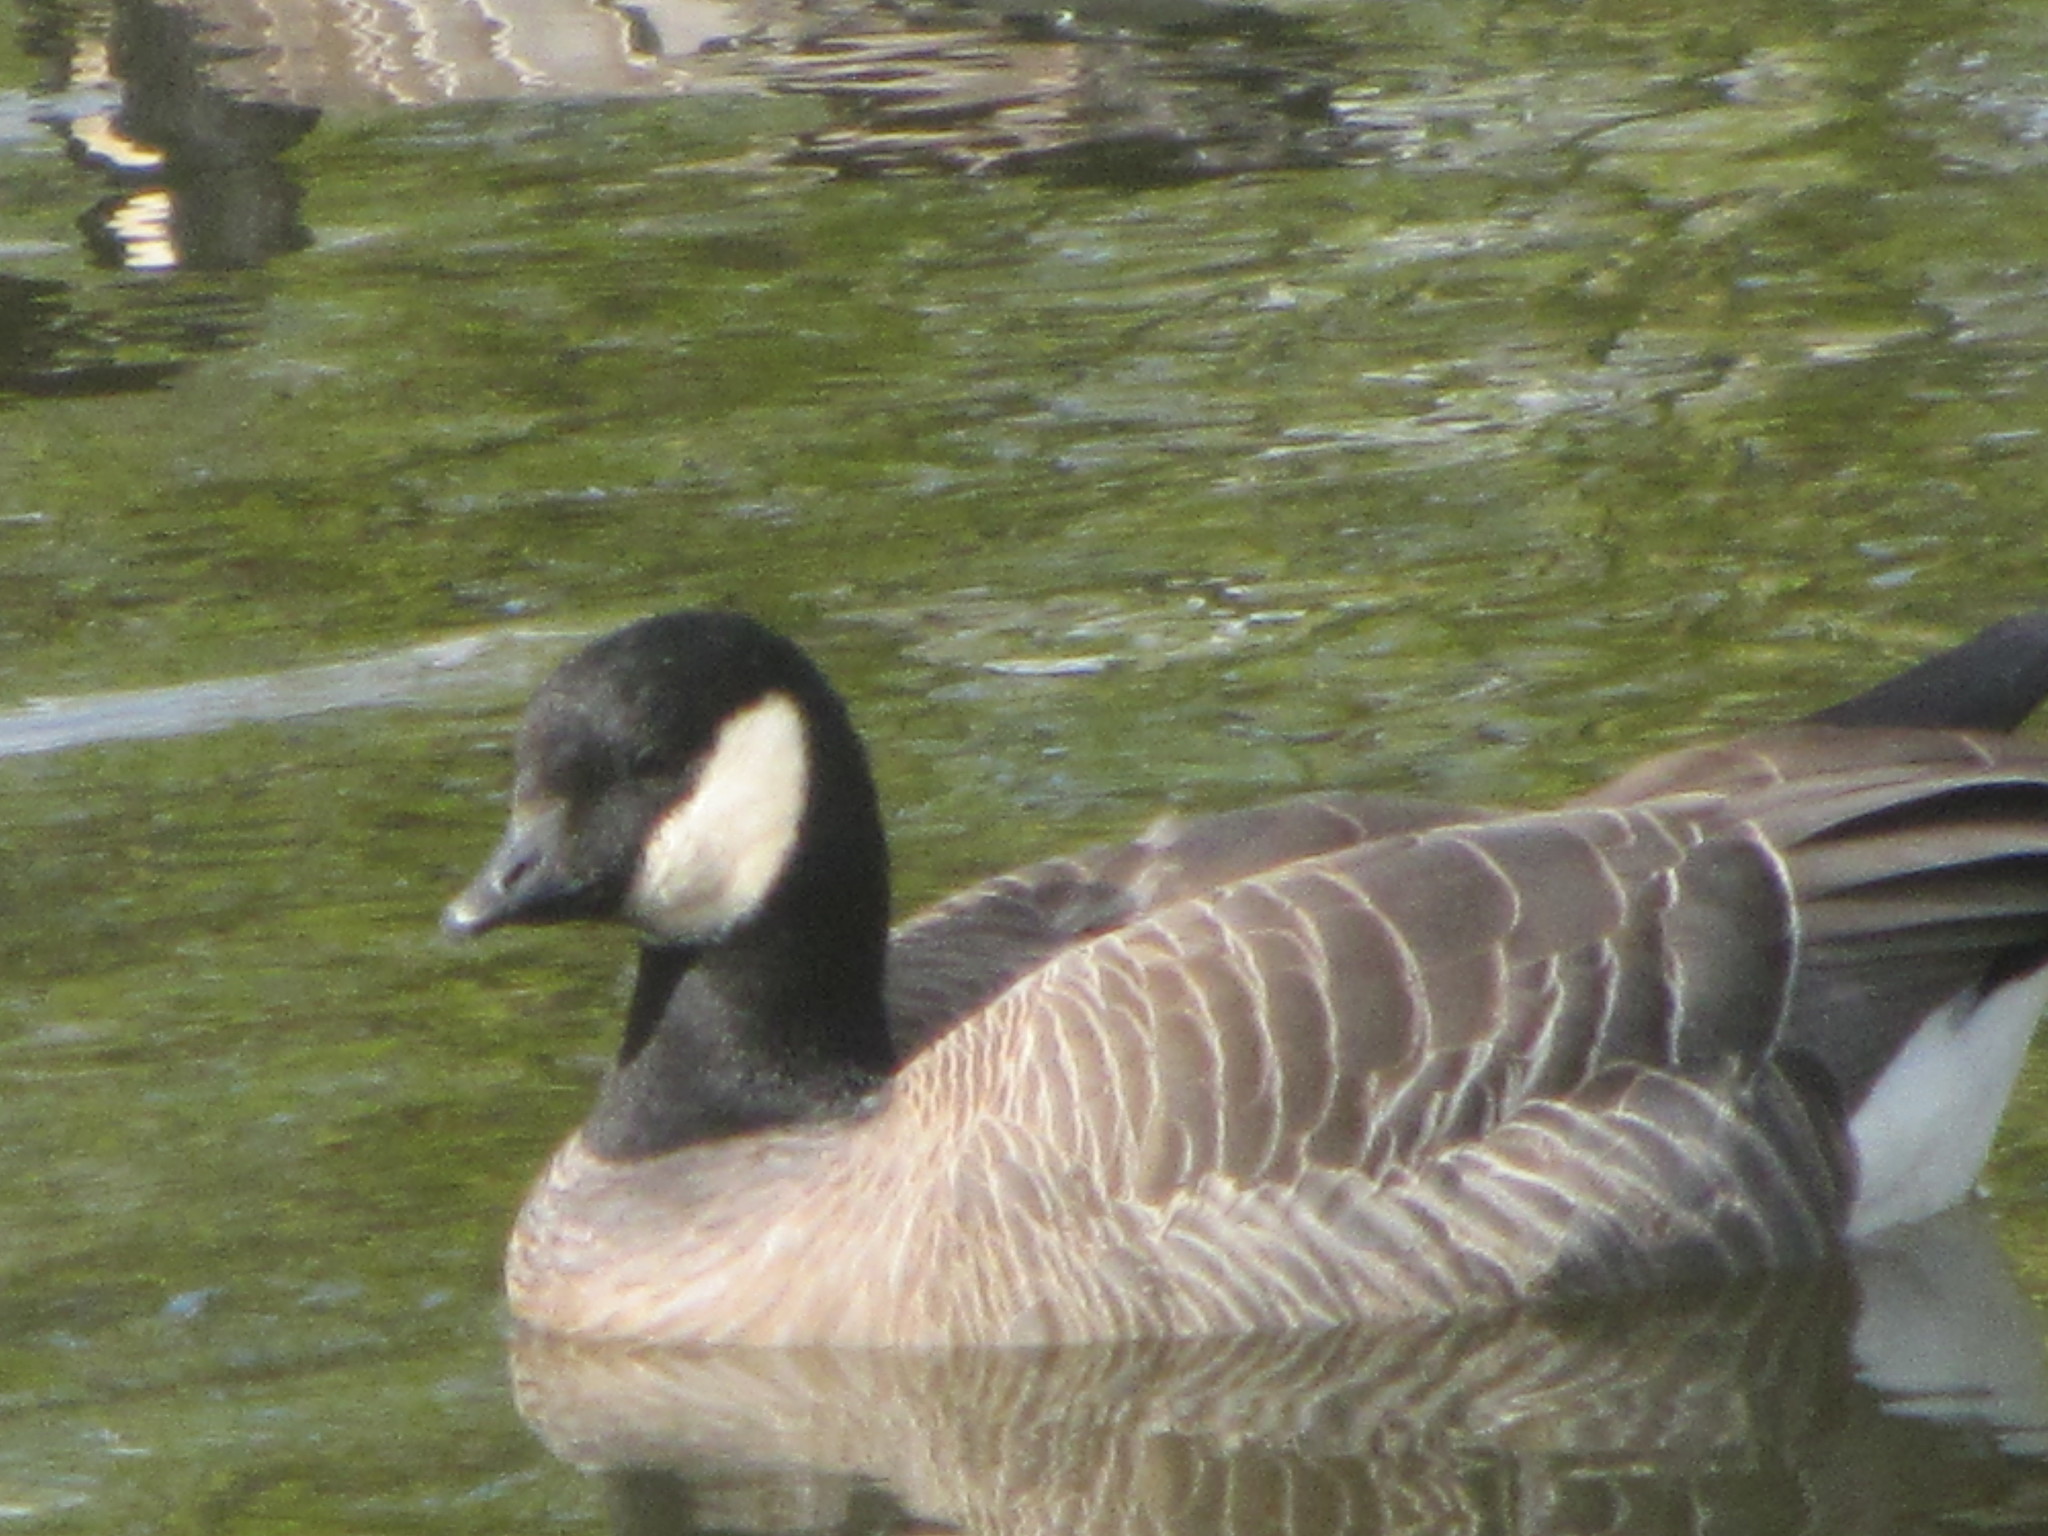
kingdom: Animalia
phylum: Chordata
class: Aves
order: Anseriformes
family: Anatidae
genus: Branta
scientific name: Branta hutchinsii
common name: Cackling goose
